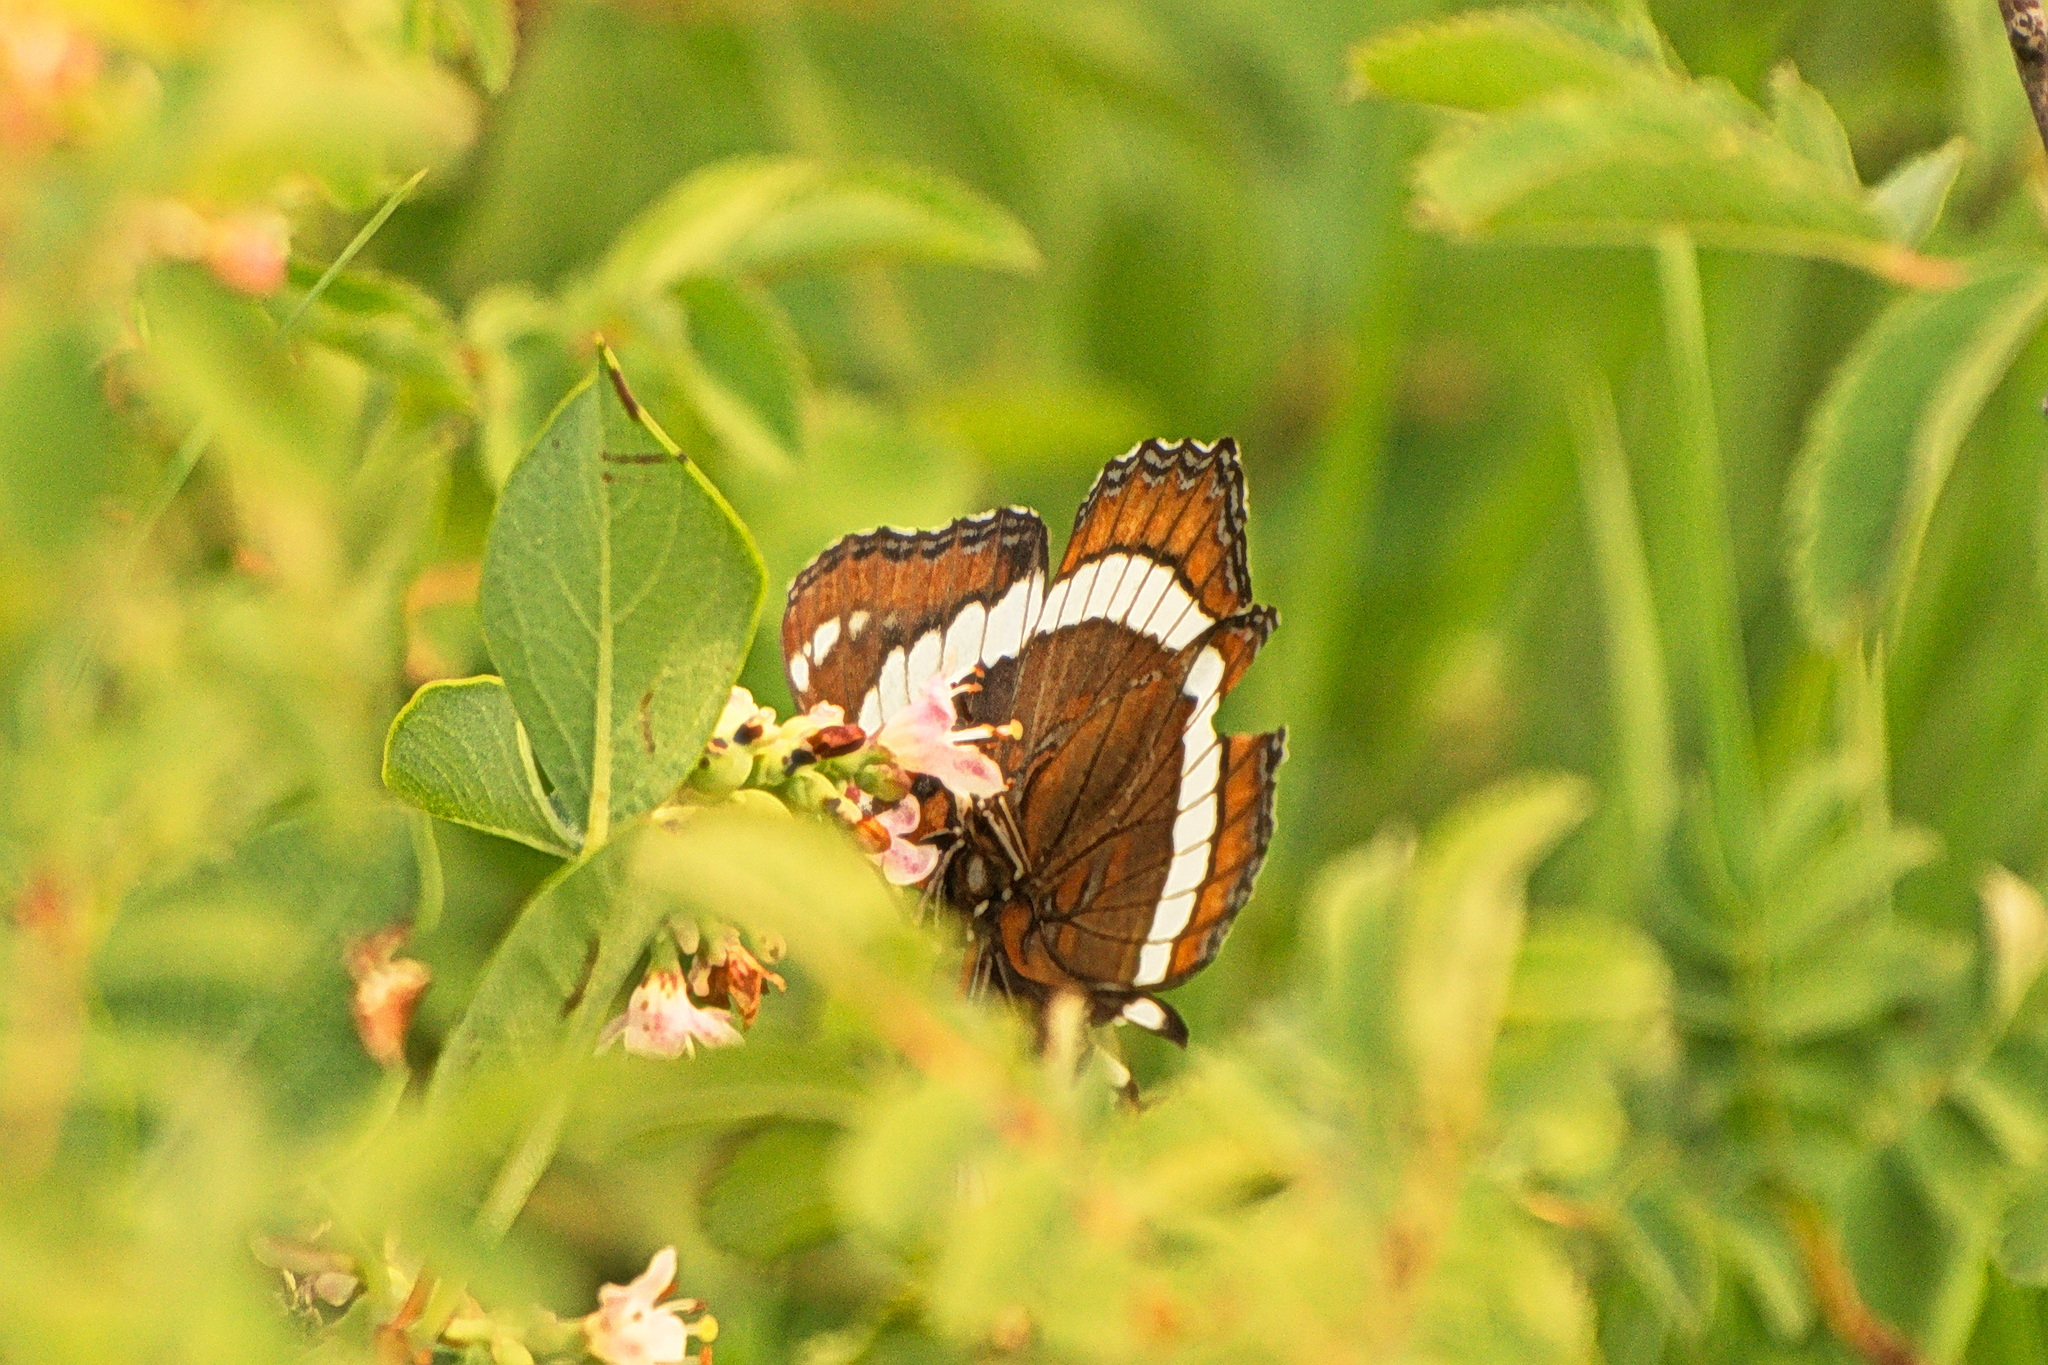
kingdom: Animalia
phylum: Arthropoda
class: Insecta
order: Lepidoptera
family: Nymphalidae
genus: Limenitis
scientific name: Limenitis arthemis
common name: Red-spotted admiral
